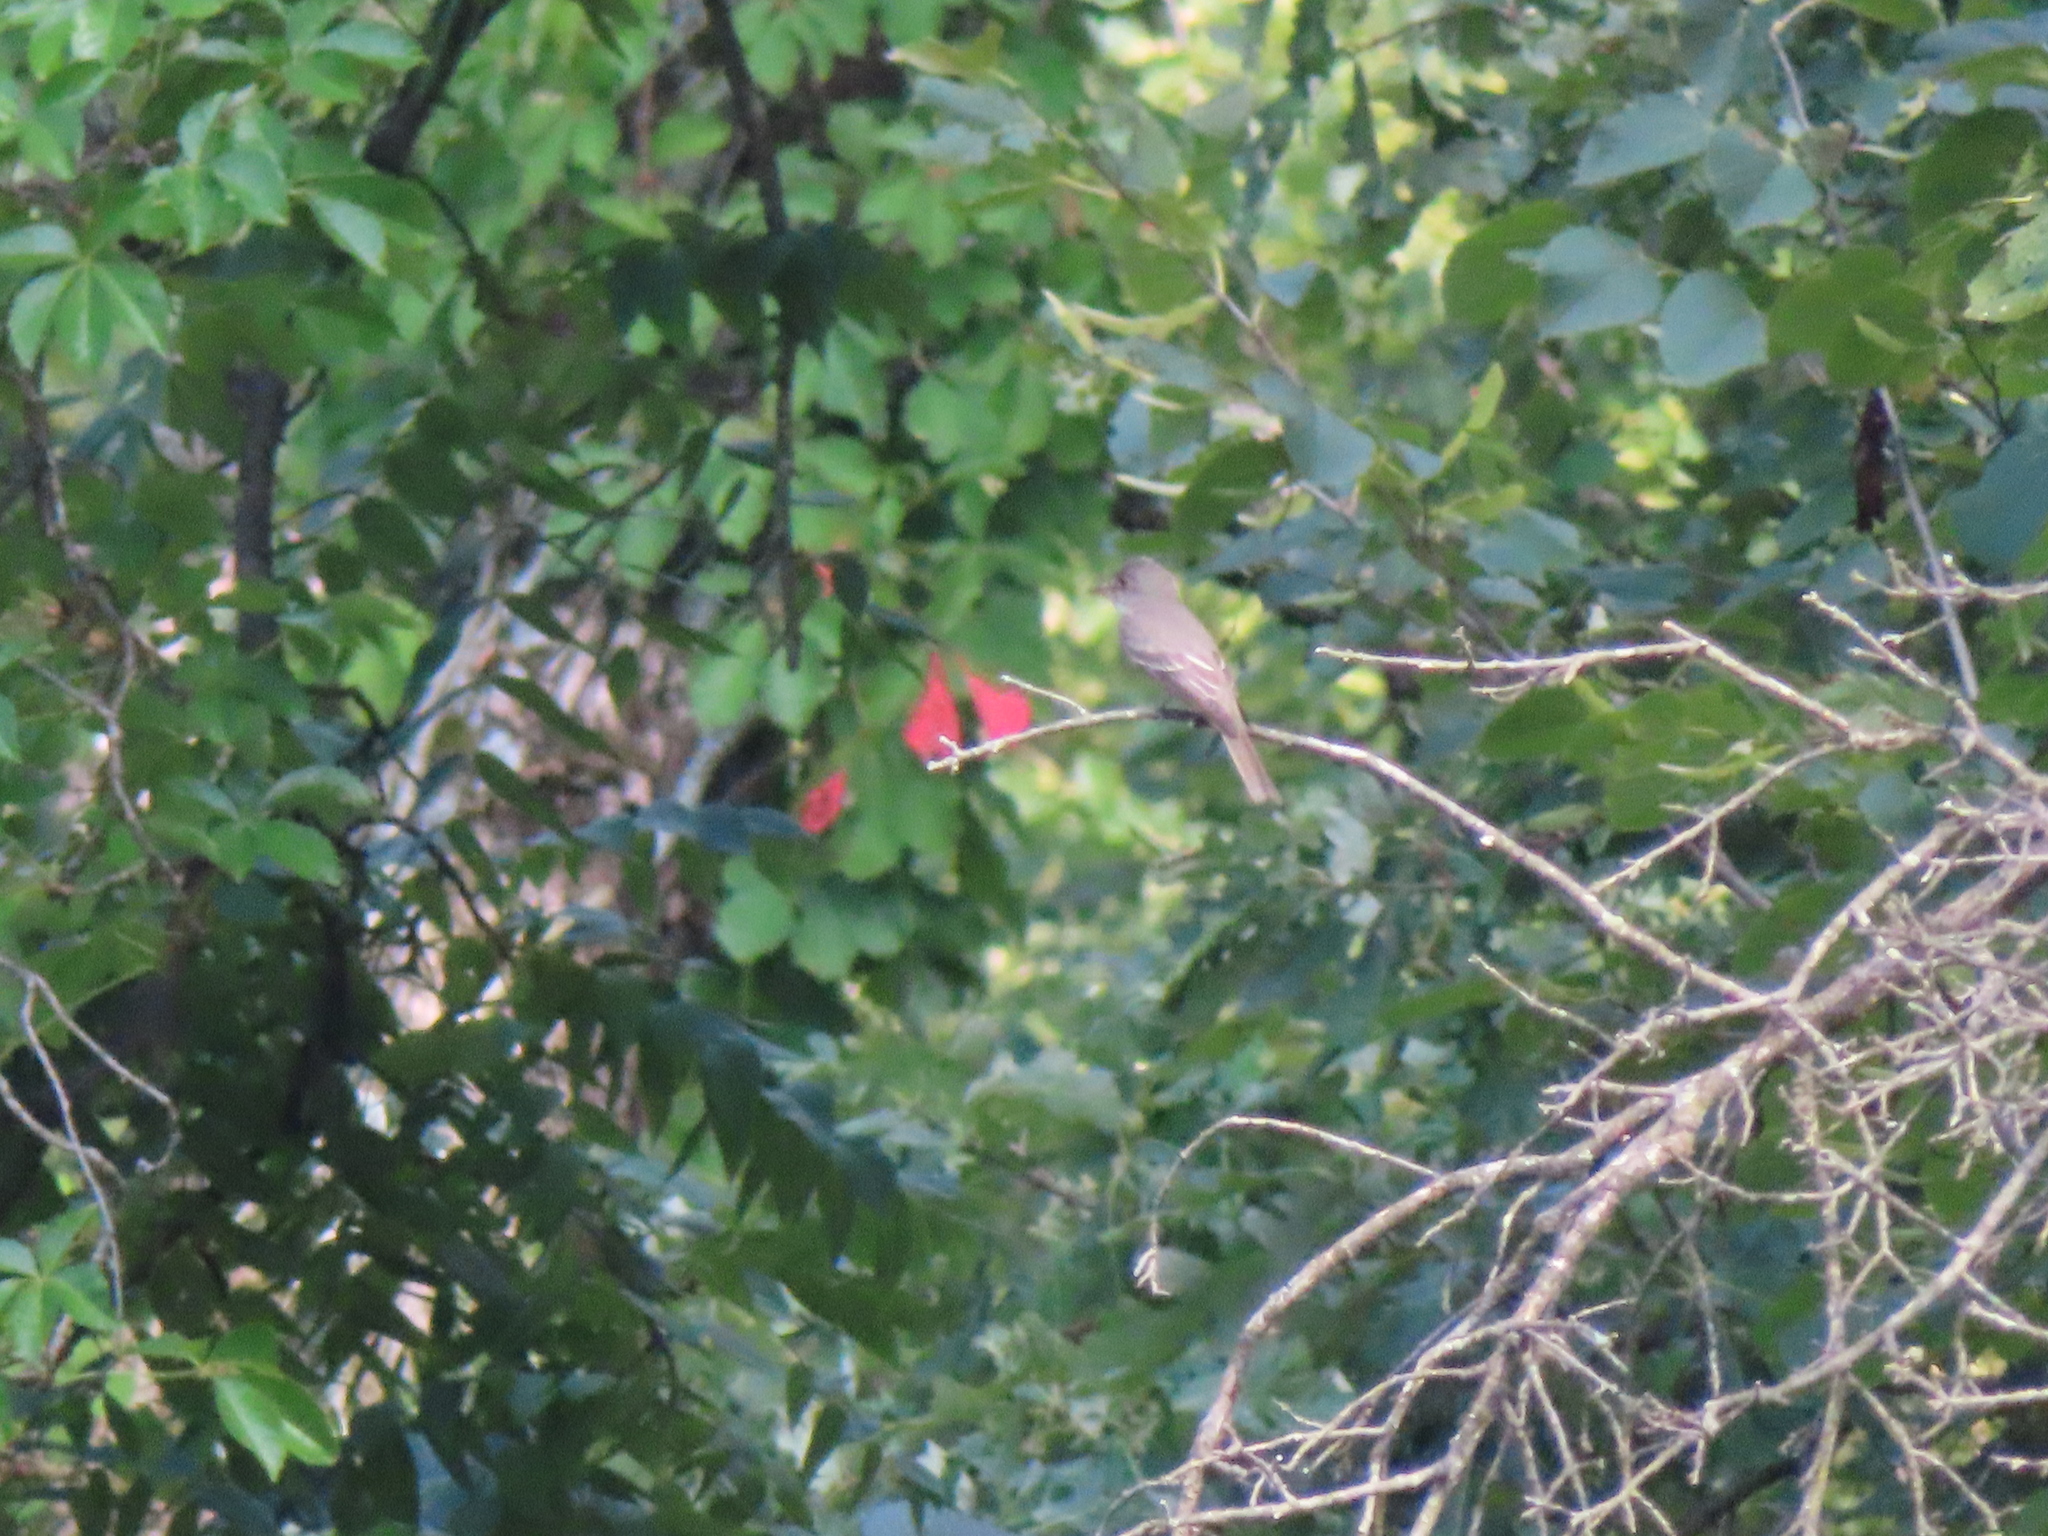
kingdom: Animalia
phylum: Chordata
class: Aves
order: Passeriformes
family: Tyrannidae
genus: Contopus
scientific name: Contopus virens
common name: Eastern wood-pewee
